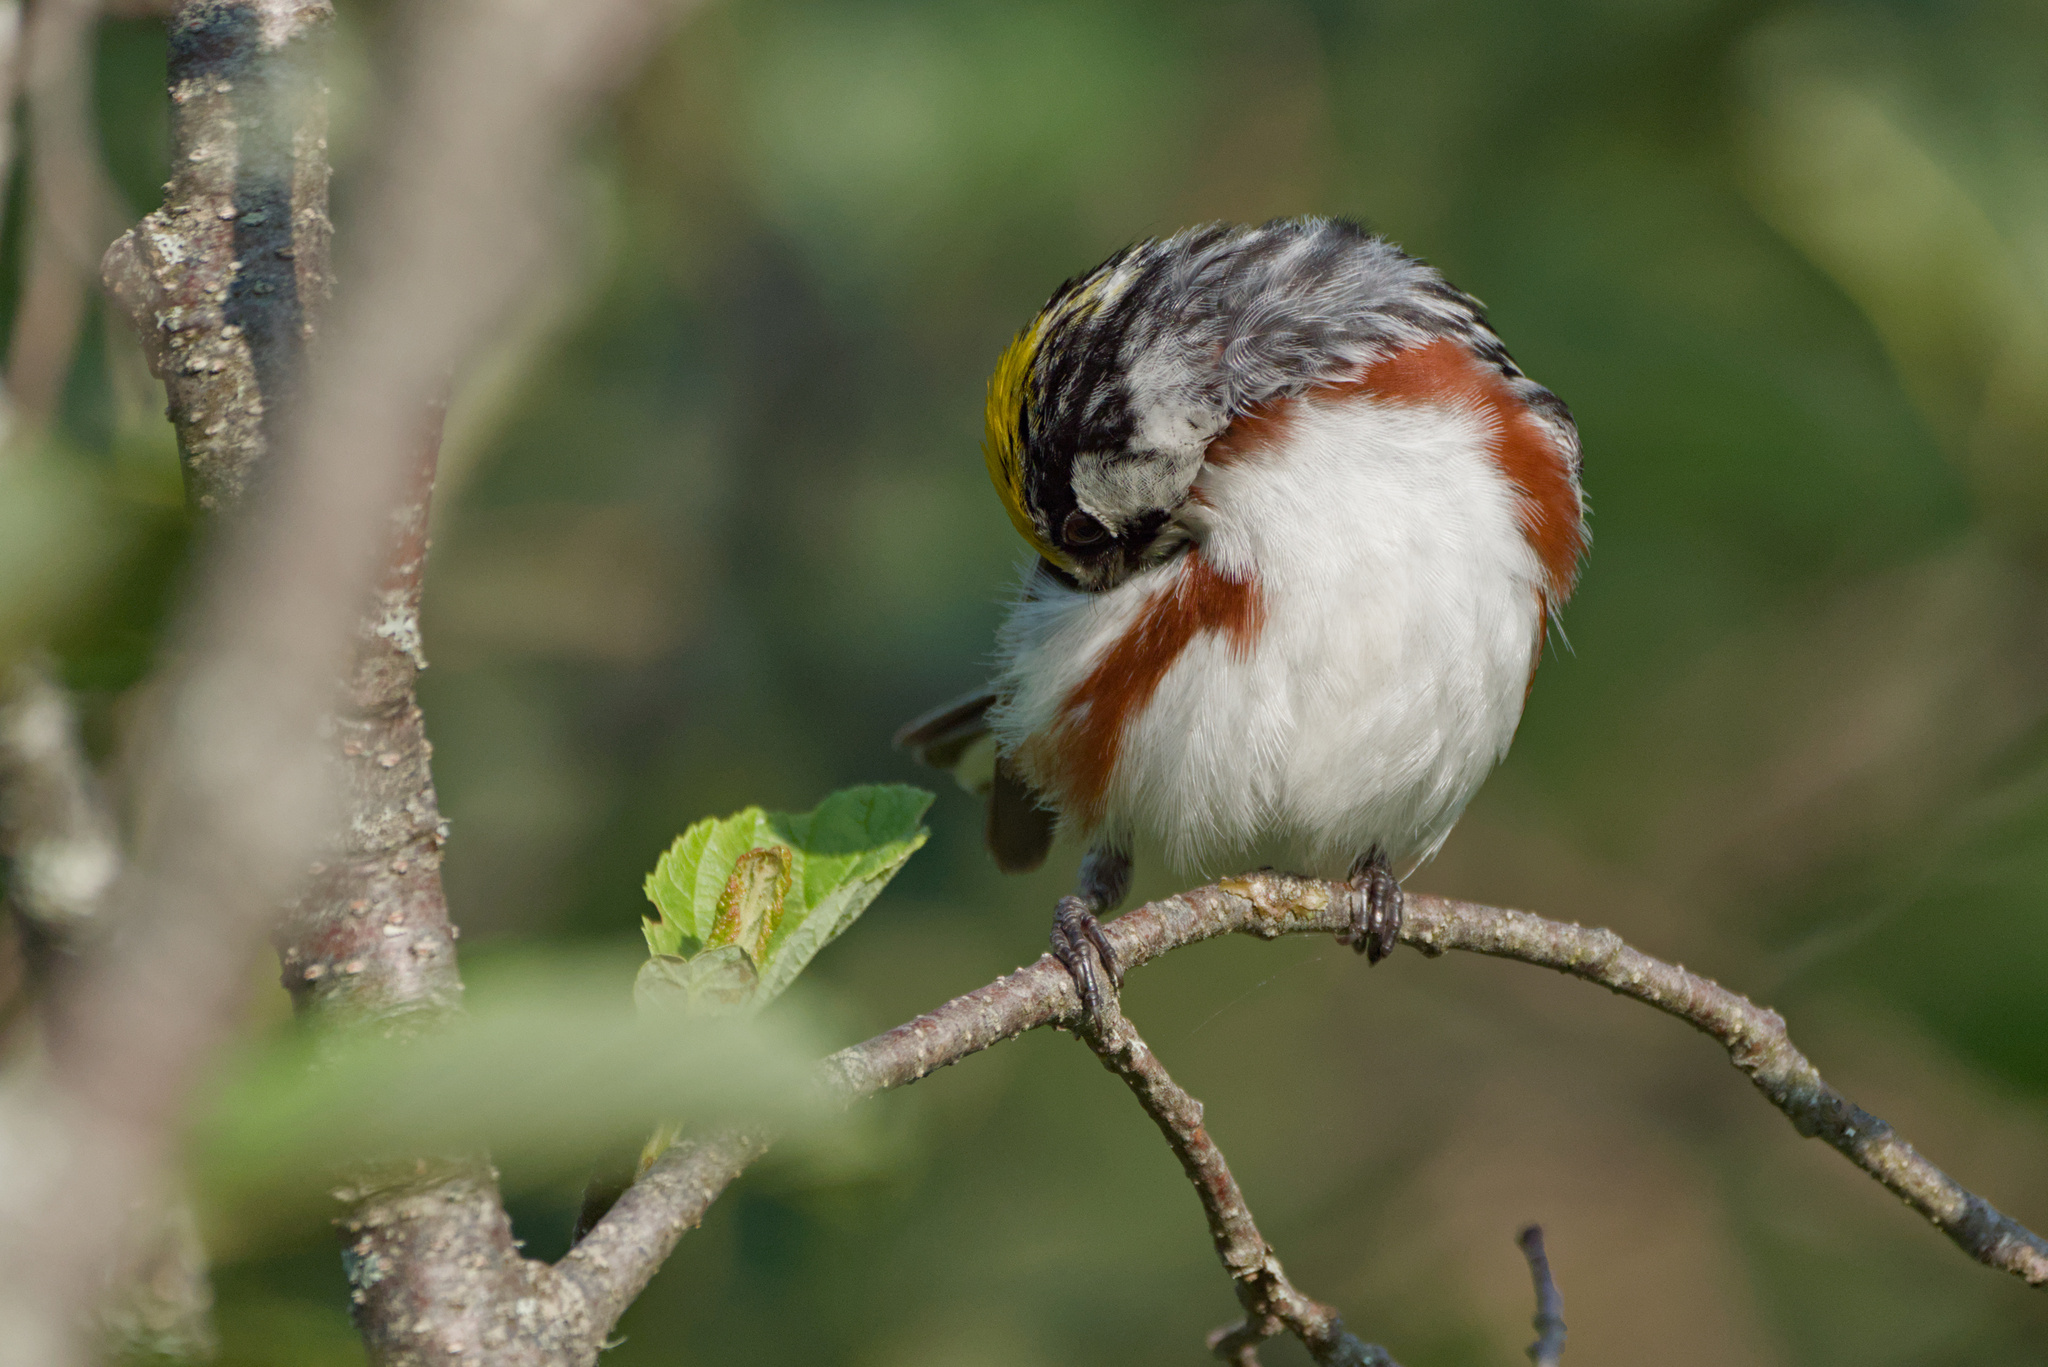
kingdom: Animalia
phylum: Chordata
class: Aves
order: Passeriformes
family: Parulidae
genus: Setophaga
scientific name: Setophaga pensylvanica
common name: Chestnut-sided warbler
